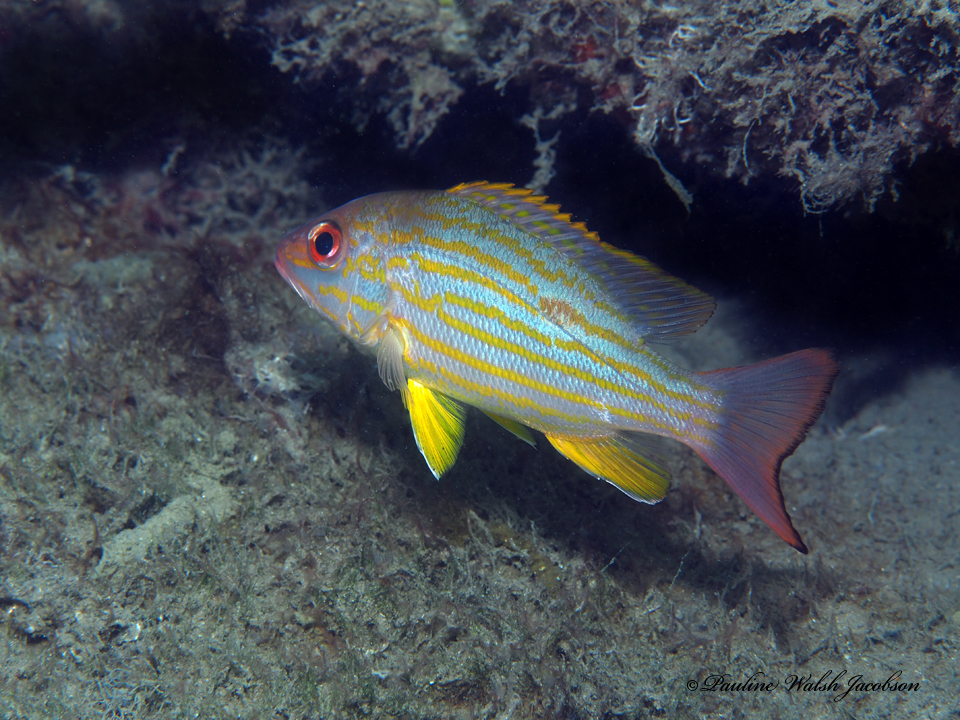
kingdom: Animalia
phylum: Chordata
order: Perciformes
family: Lutjanidae
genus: Lutjanus
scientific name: Lutjanus synagris
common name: Lane snapper
